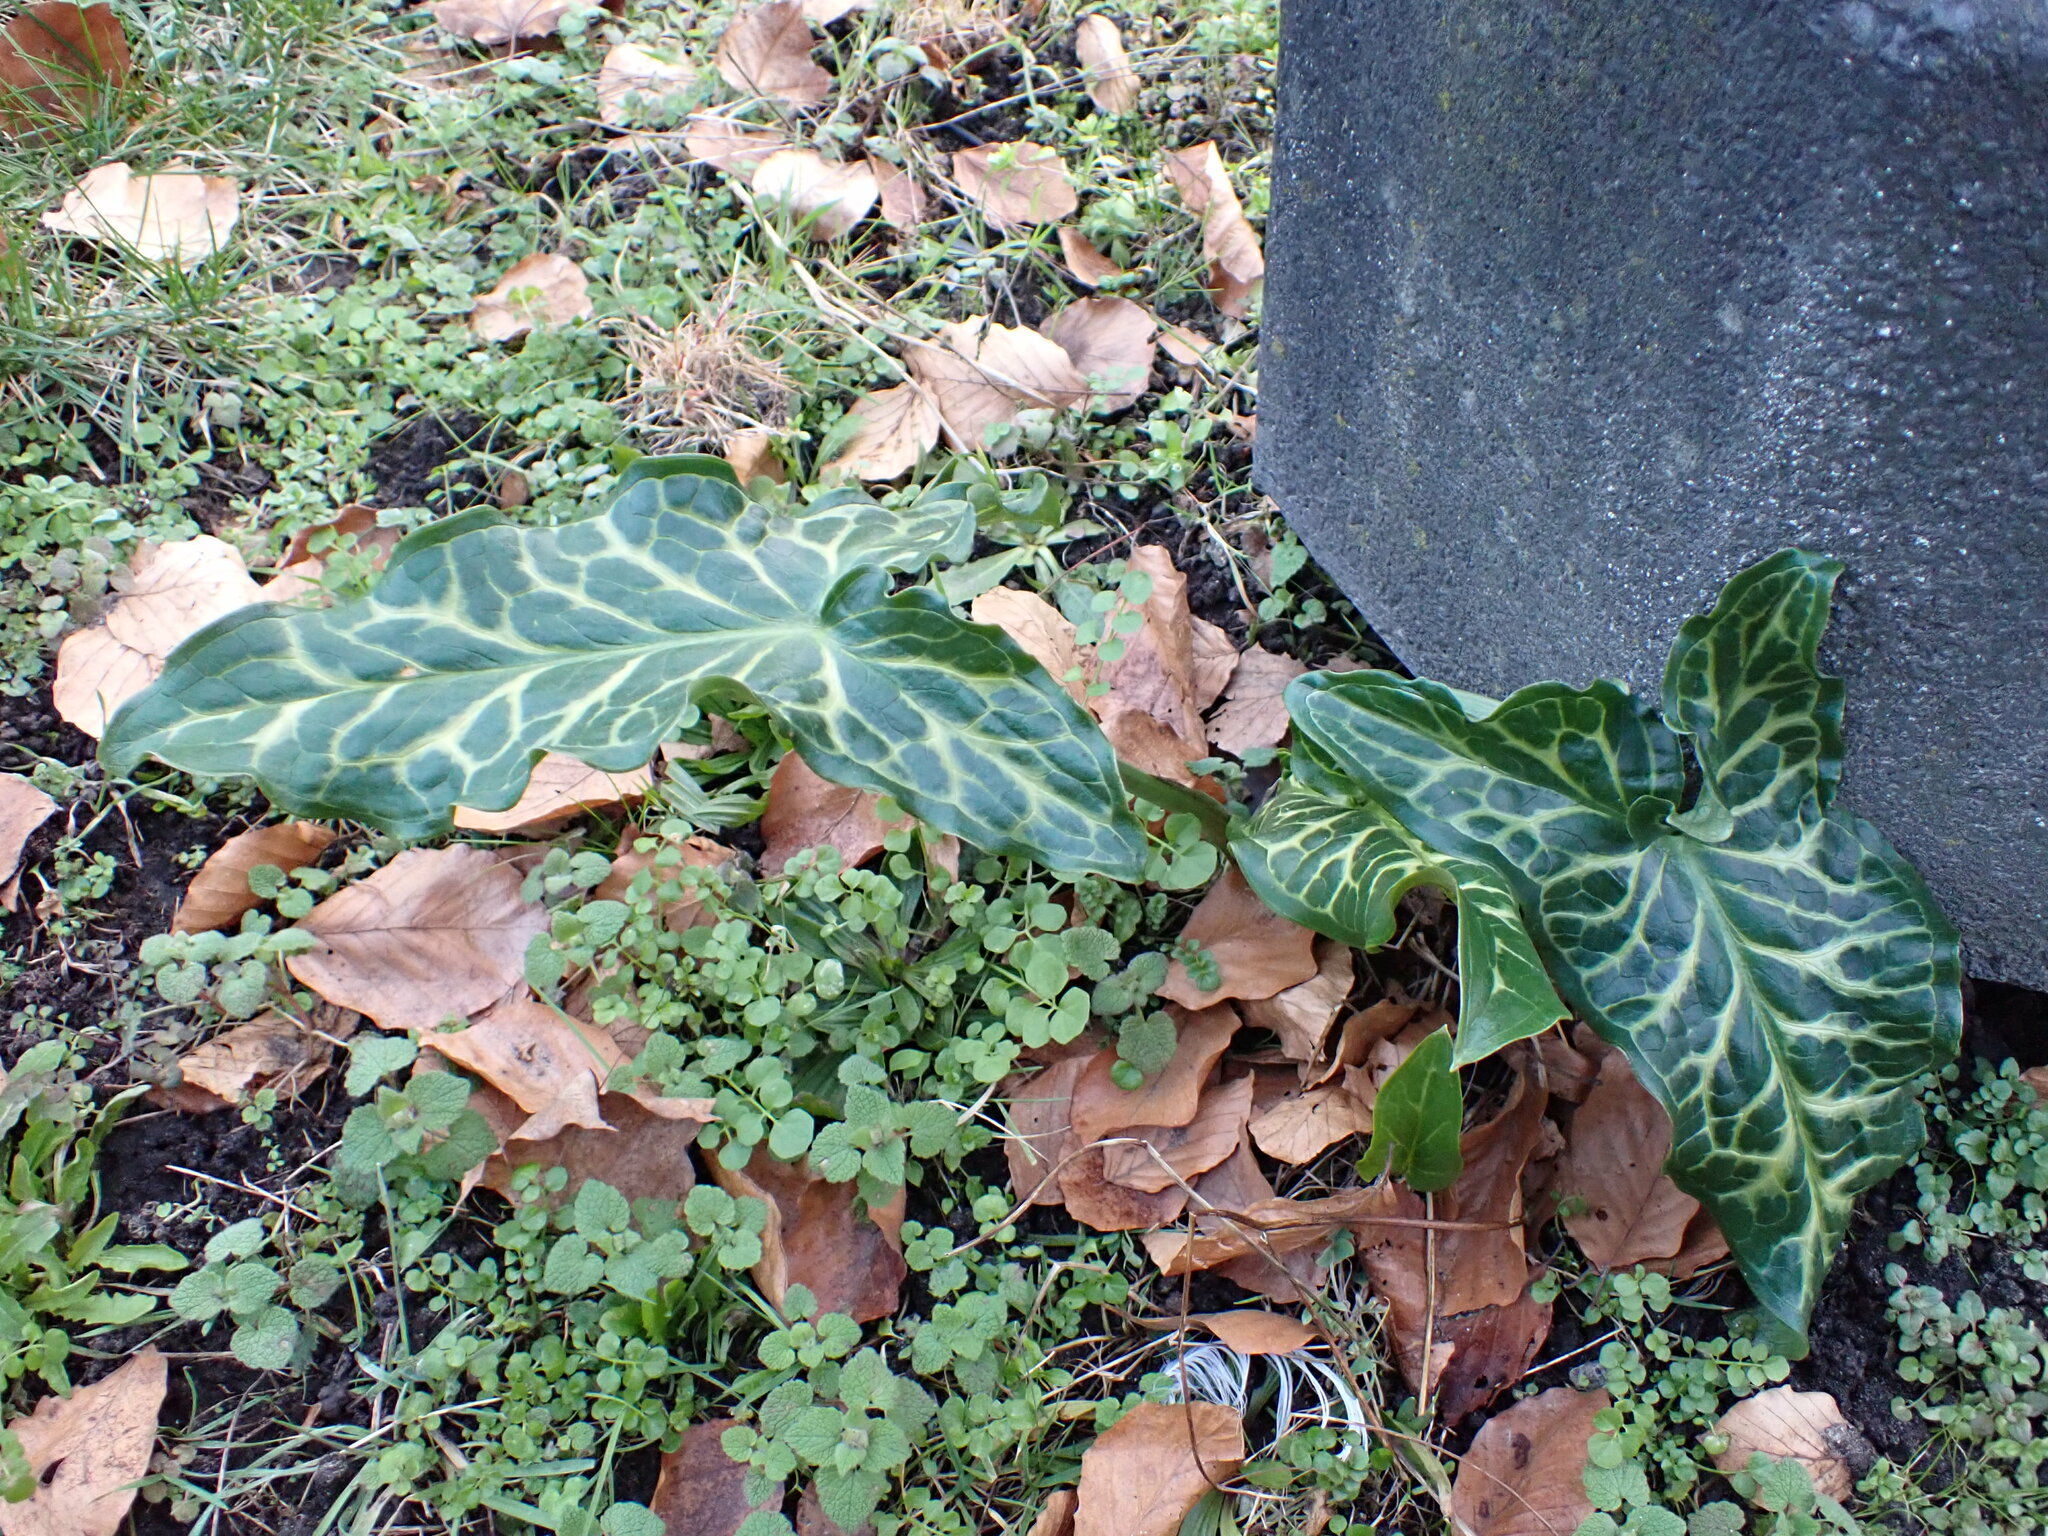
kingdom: Plantae
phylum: Tracheophyta
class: Liliopsida
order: Alismatales
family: Araceae
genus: Arum
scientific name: Arum italicum
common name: Italian lords-and-ladies
